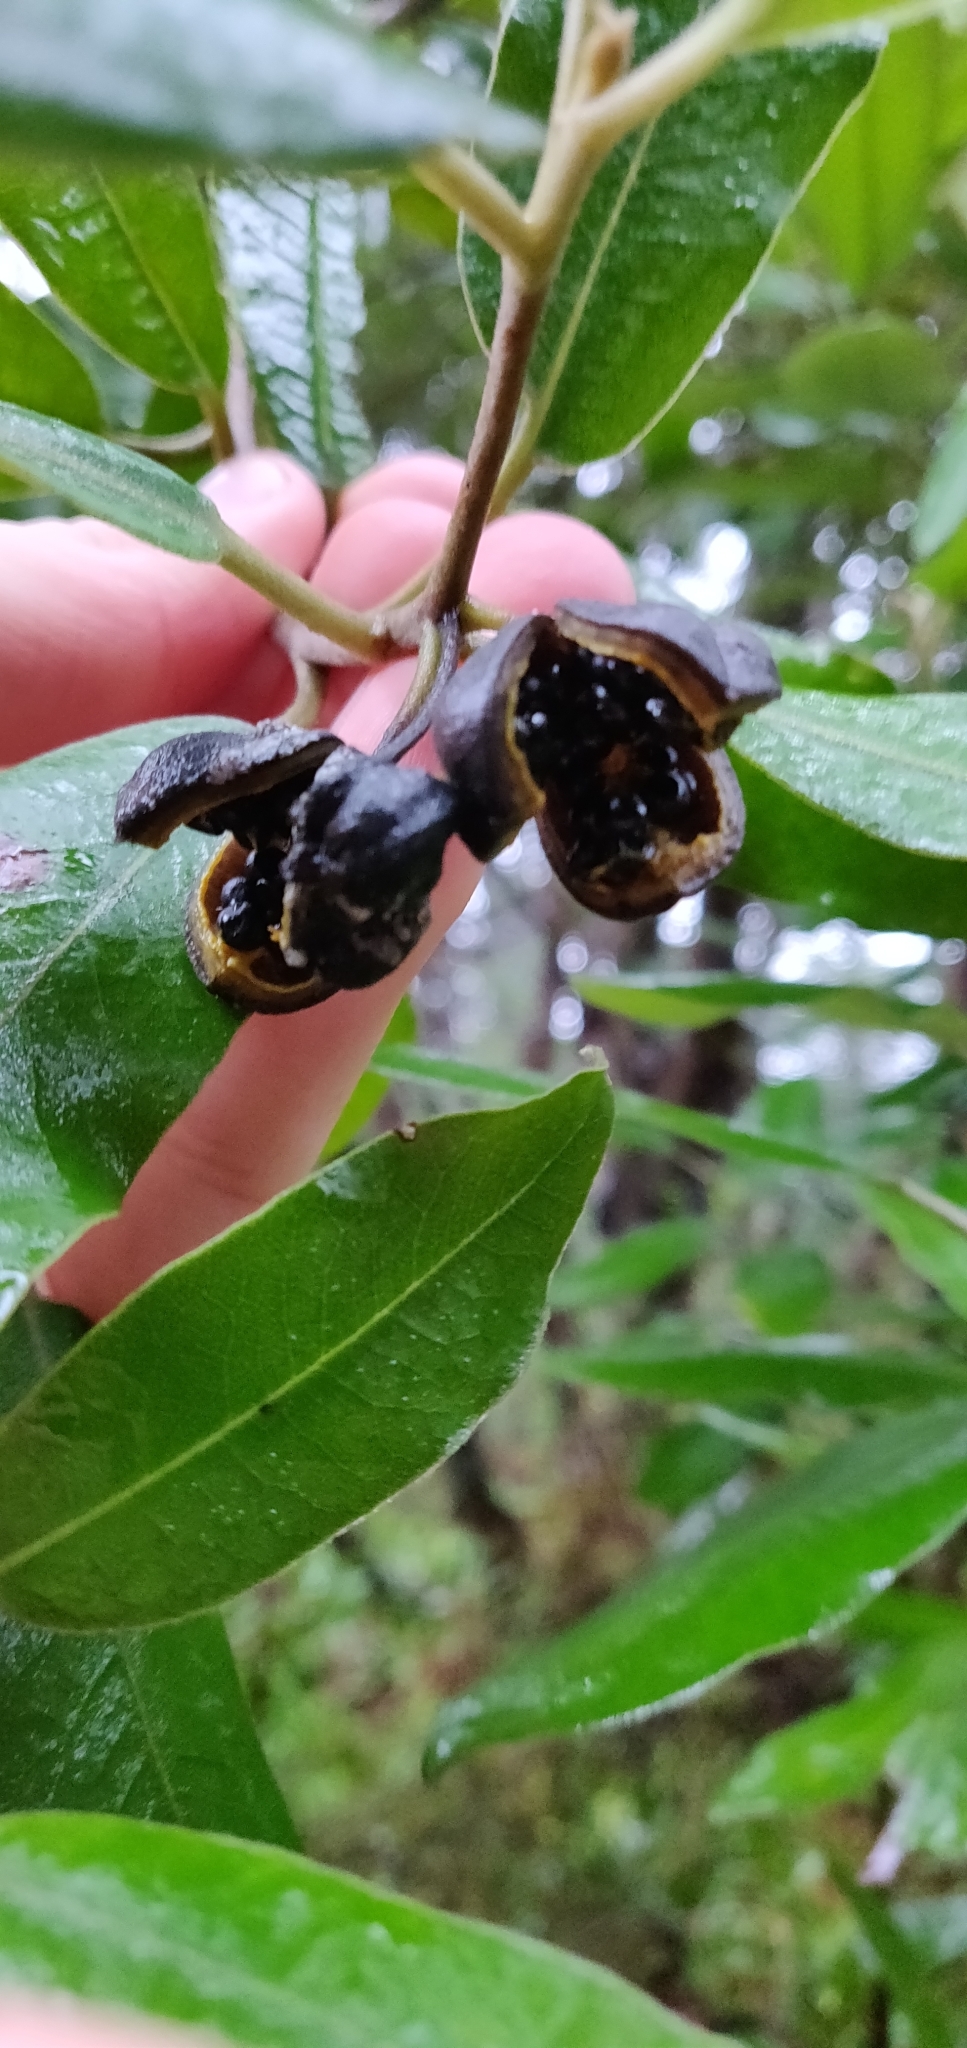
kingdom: Plantae
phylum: Tracheophyta
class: Magnoliopsida
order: Apiales
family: Pittosporaceae
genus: Pittosporum
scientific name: Pittosporum ralphii
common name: Ralph's desertwillow
